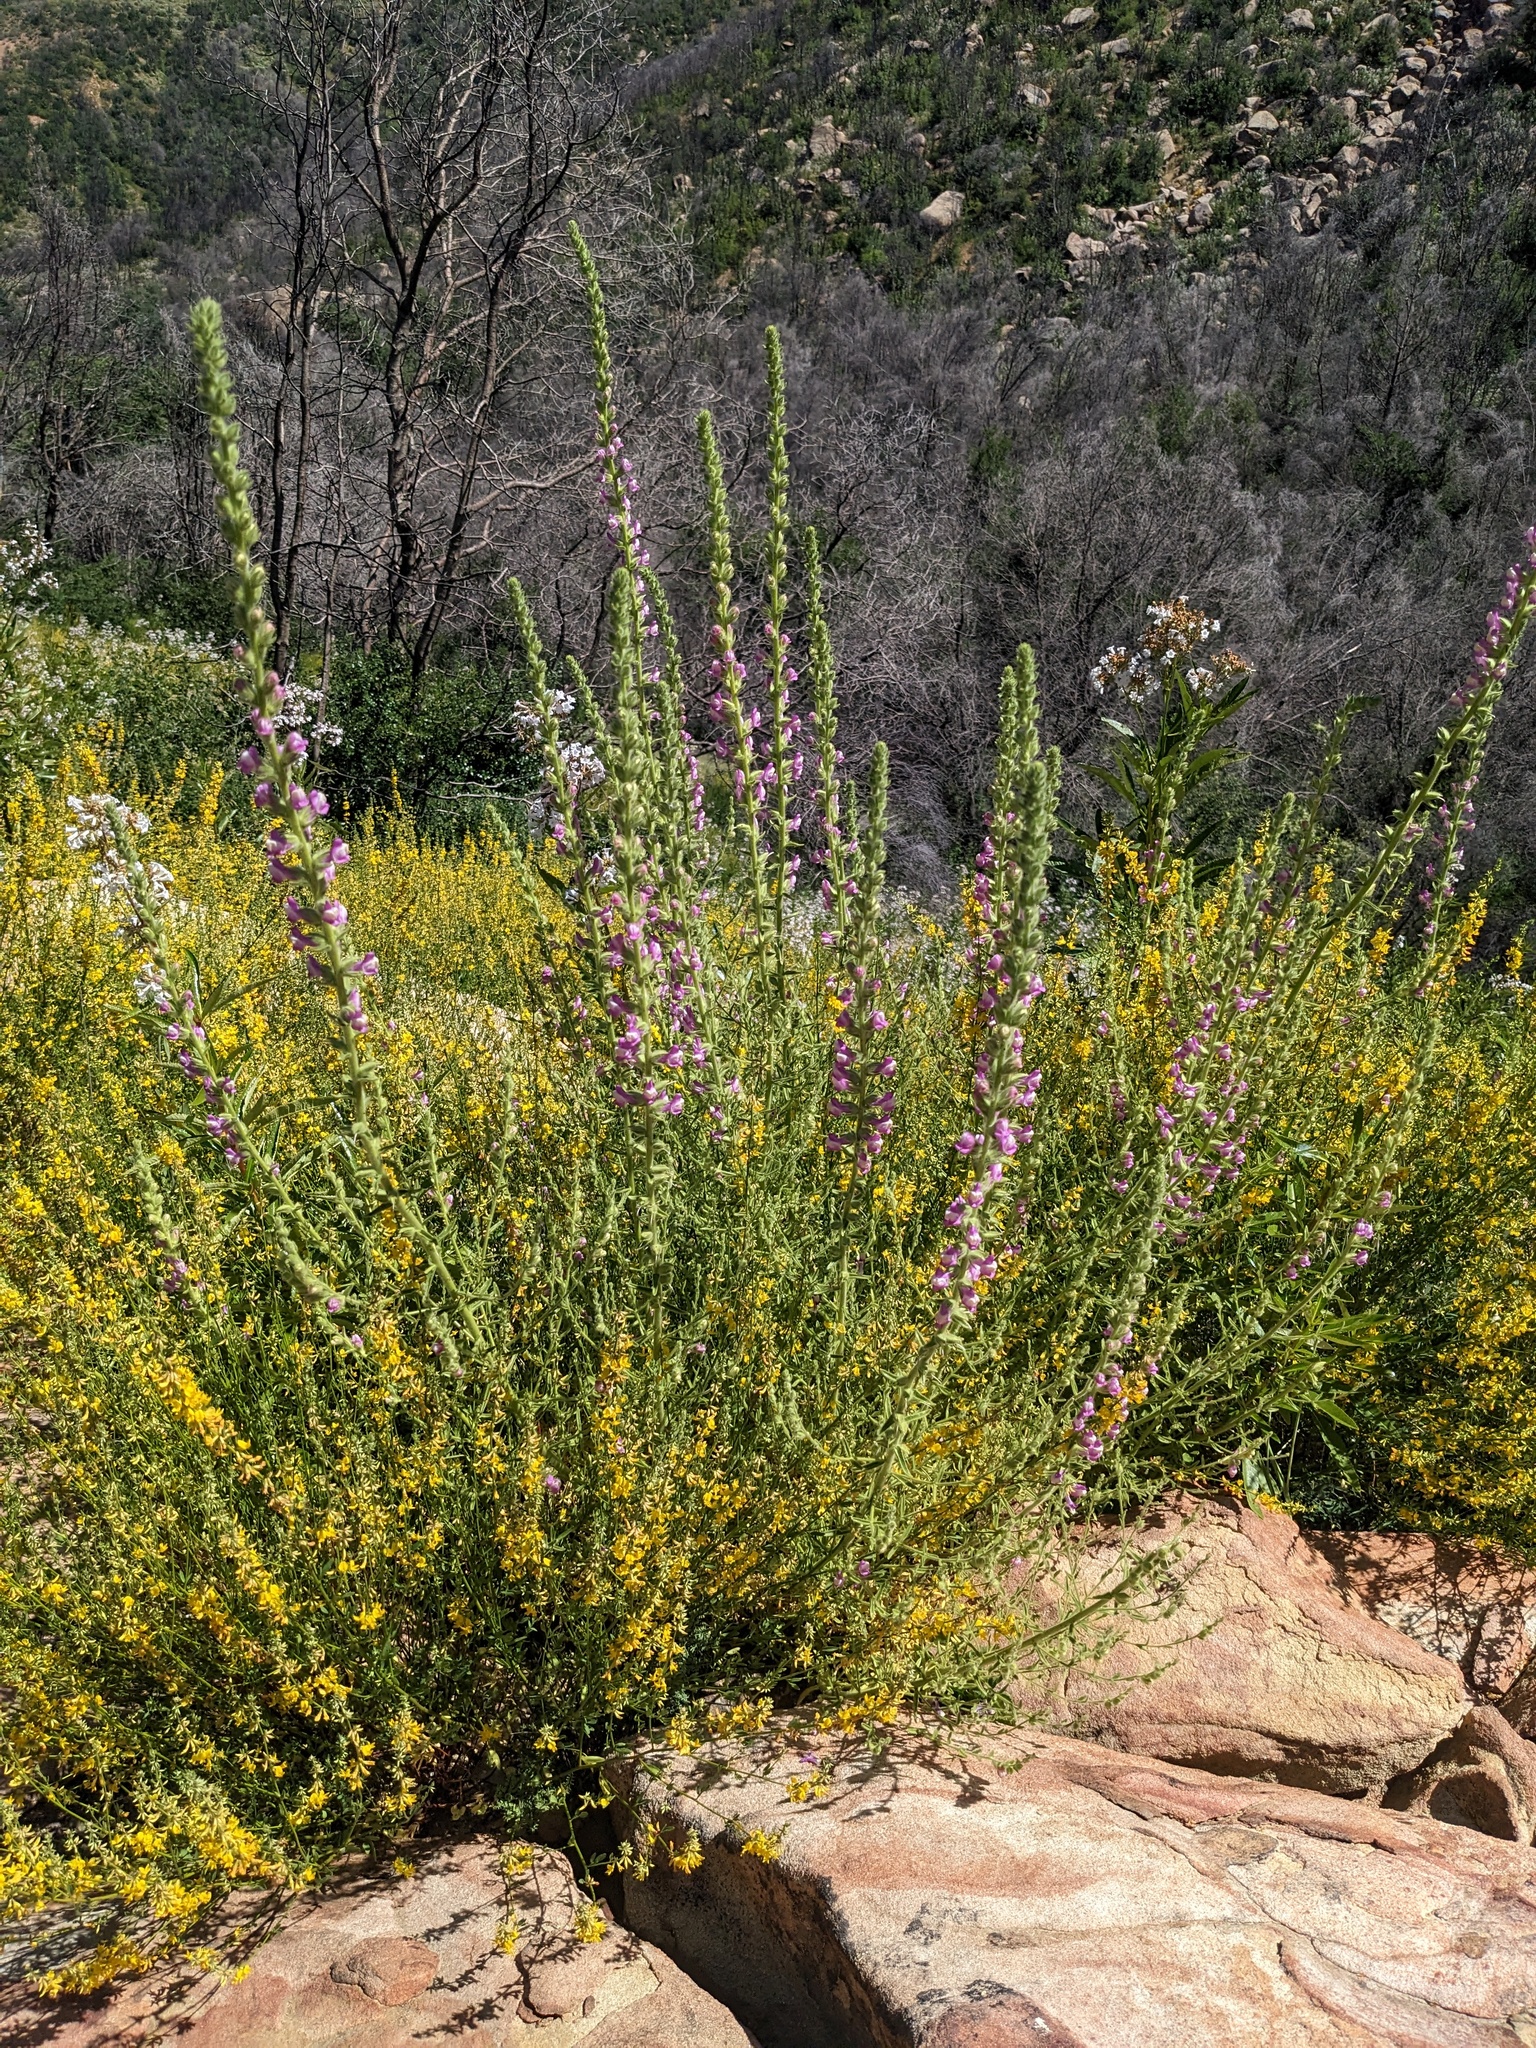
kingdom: Plantae
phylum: Tracheophyta
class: Magnoliopsida
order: Lamiales
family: Plantaginaceae
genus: Sairocarpus
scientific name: Sairocarpus multiflorus
